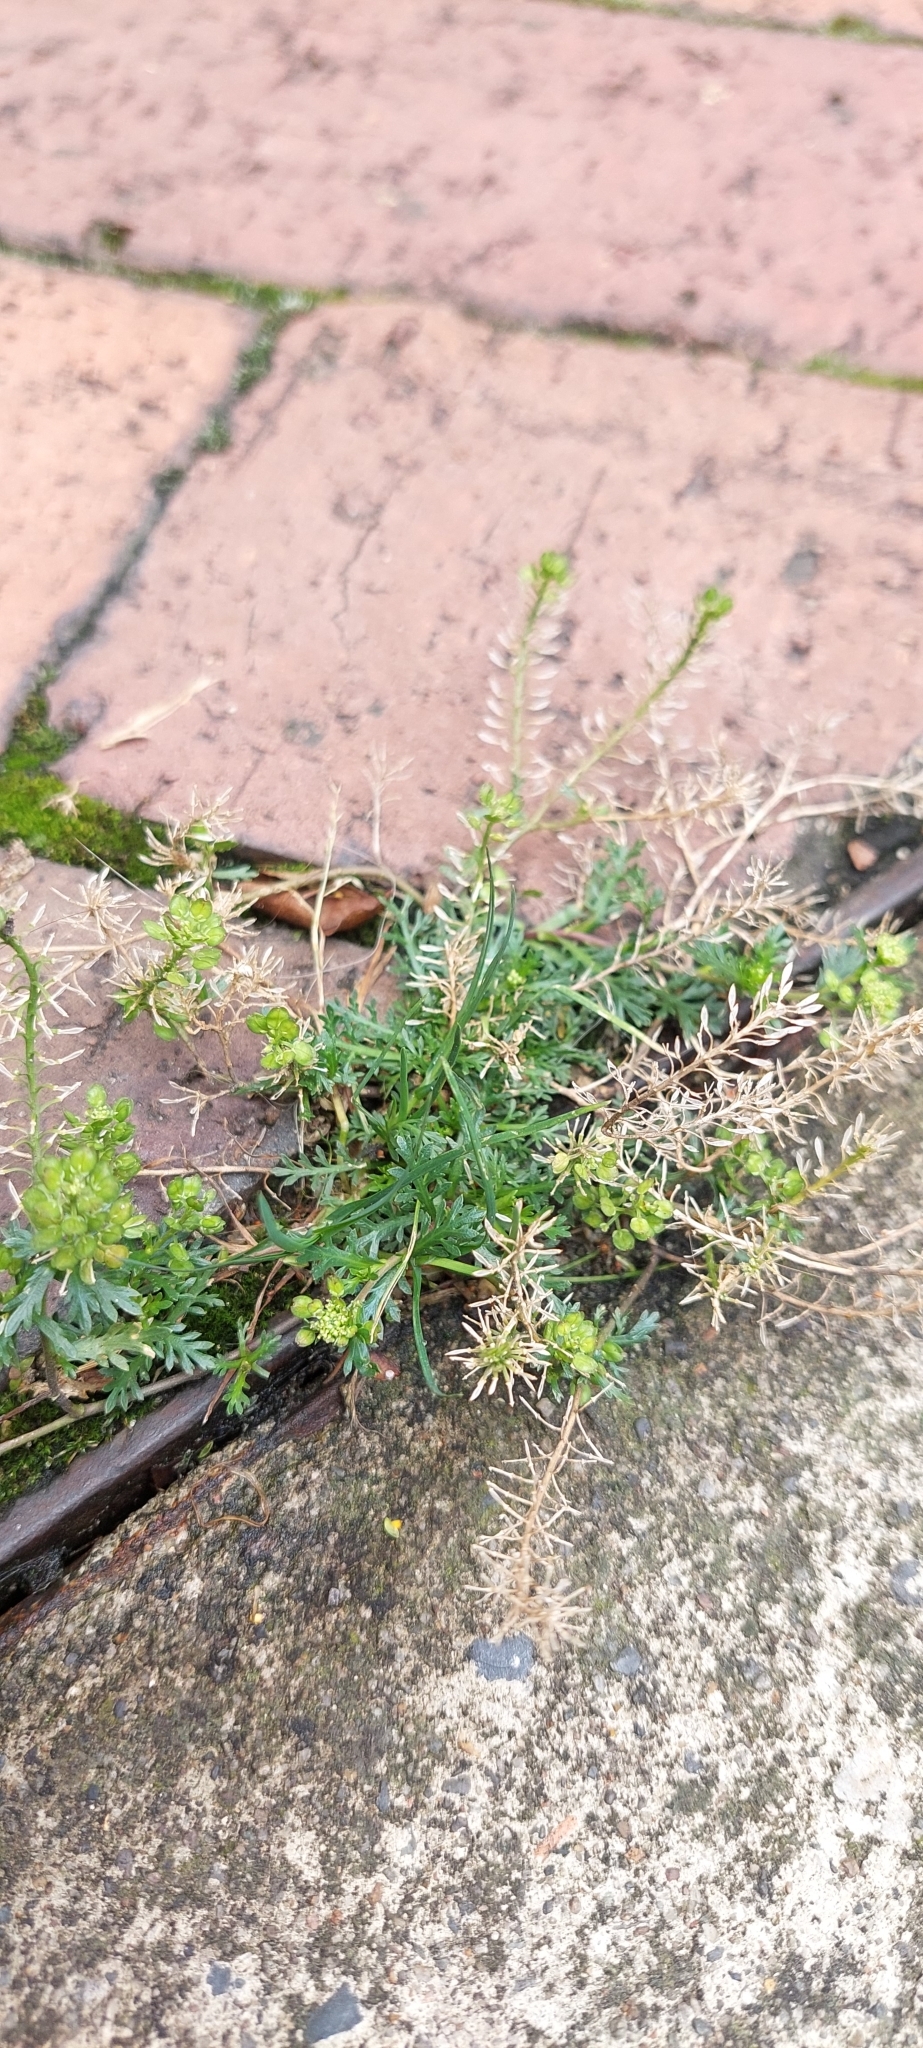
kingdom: Plantae
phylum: Tracheophyta
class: Magnoliopsida
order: Brassicales
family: Brassicaceae
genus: Lepidium
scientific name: Lepidium bipinnatifidum
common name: Wayside pepperwort
